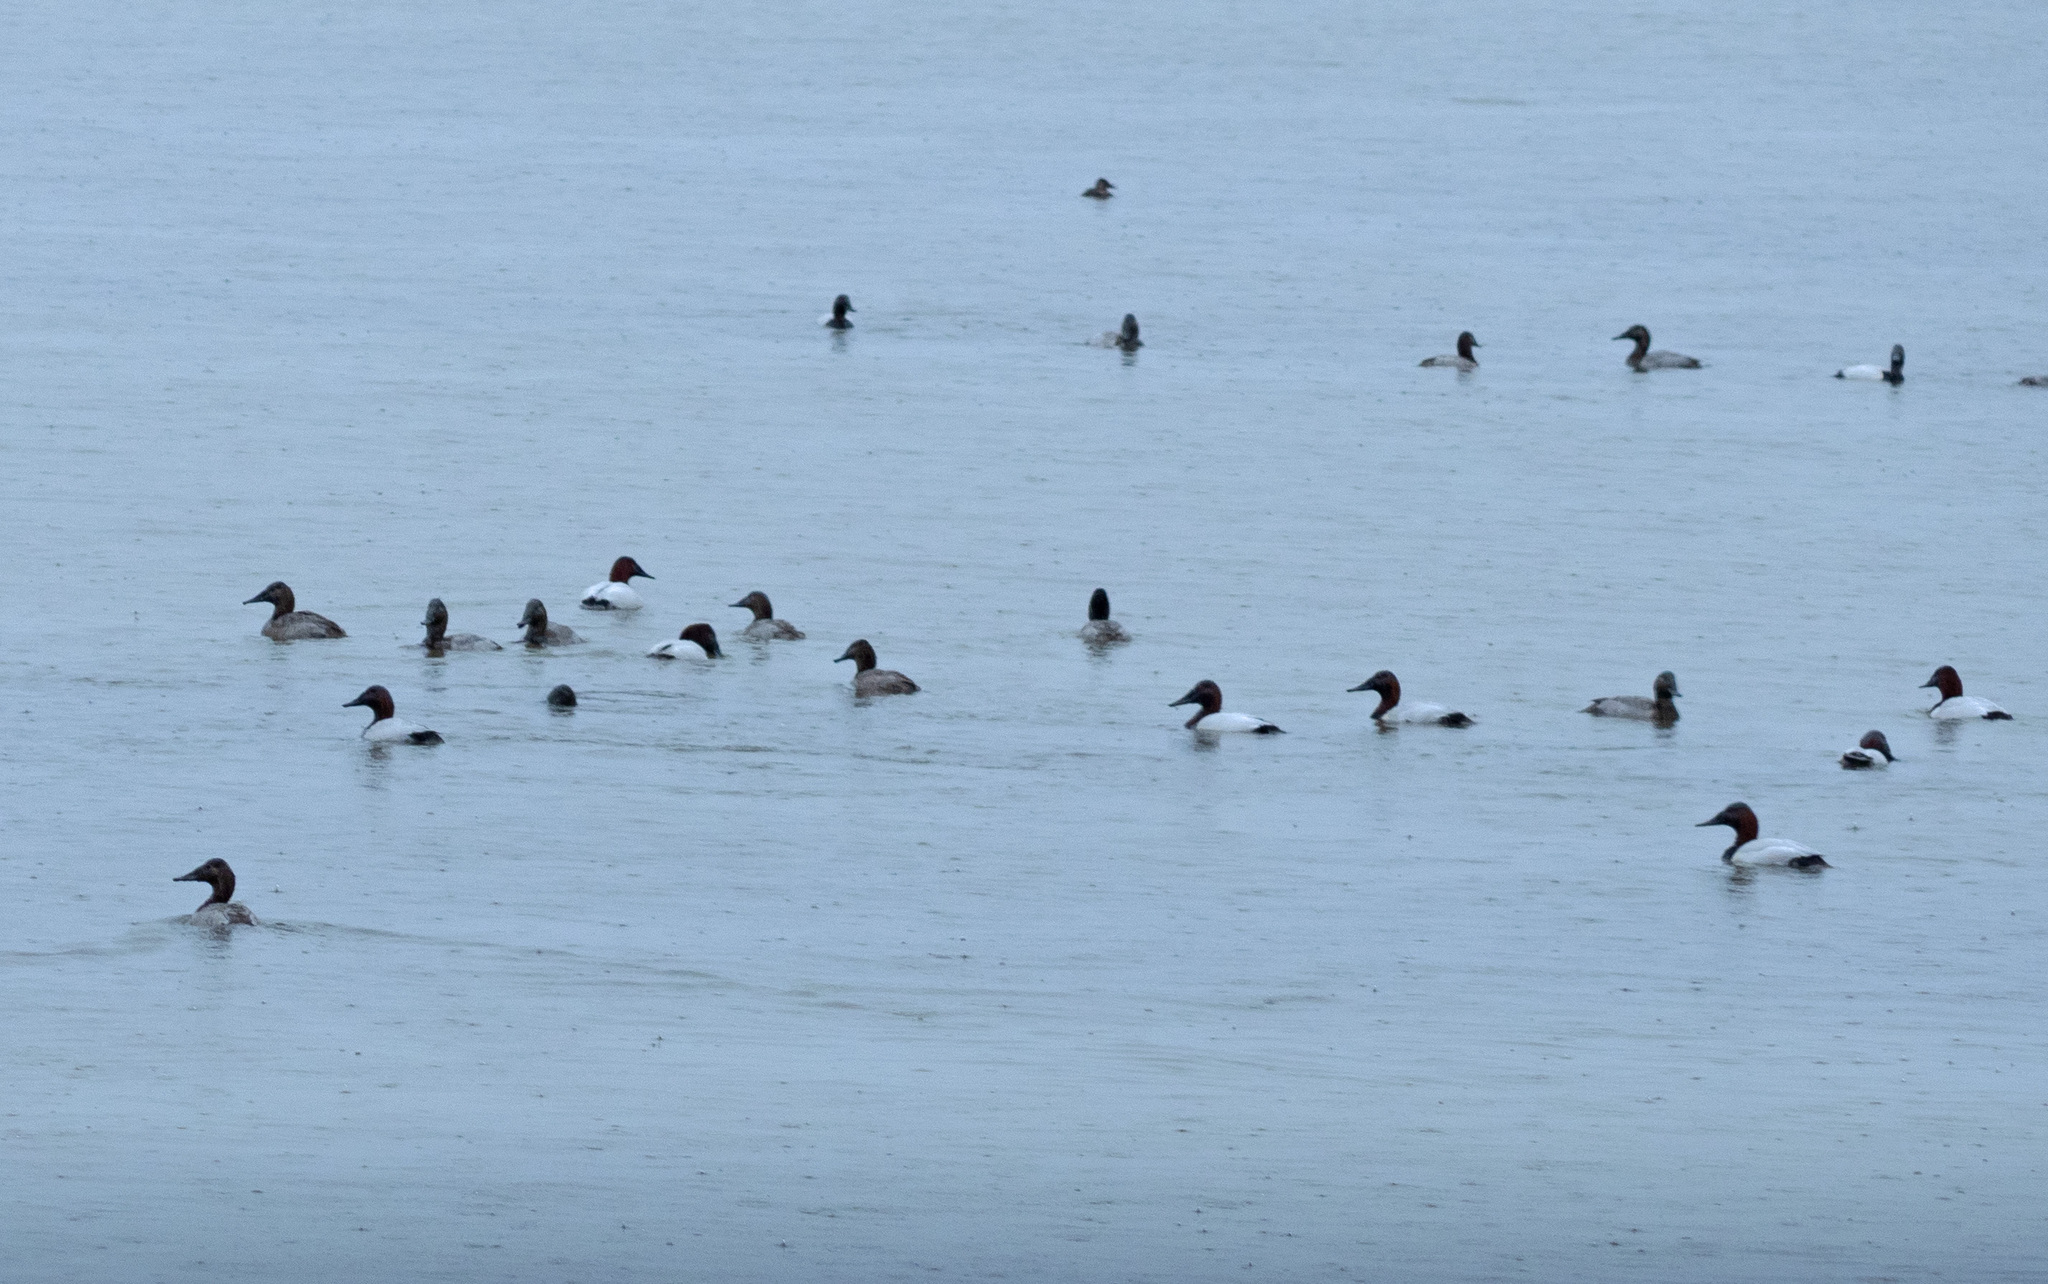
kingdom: Animalia
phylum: Chordata
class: Aves
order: Anseriformes
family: Anatidae
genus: Aythya
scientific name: Aythya valisineria
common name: Canvasback
